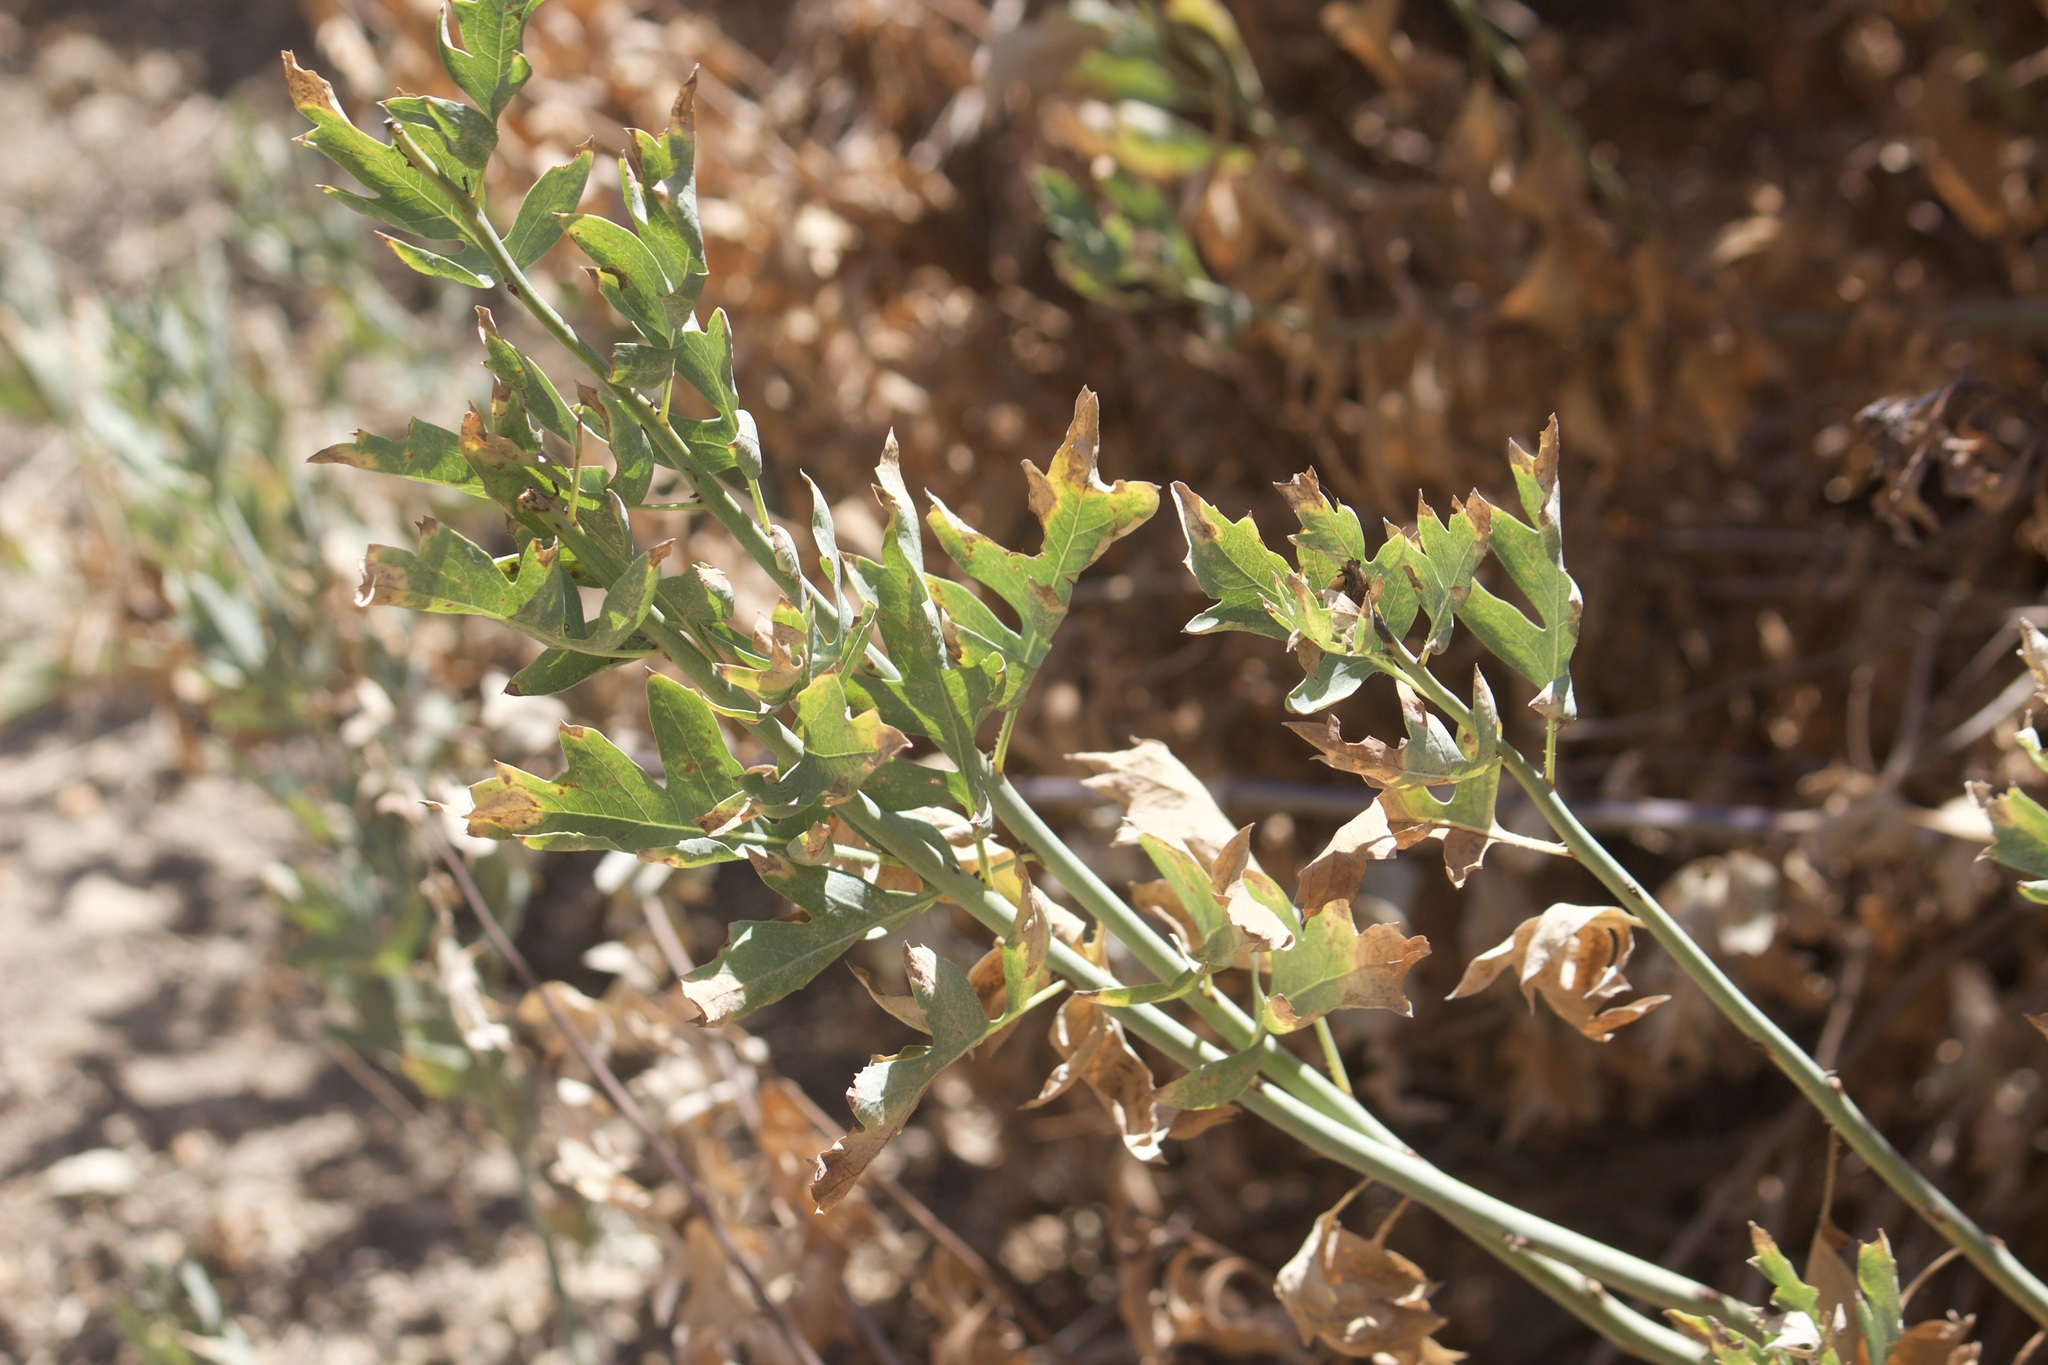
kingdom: Plantae
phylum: Tracheophyta
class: Magnoliopsida
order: Ranunculales
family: Papaveraceae
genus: Romneya
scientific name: Romneya coulteri
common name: California tree-poppy
